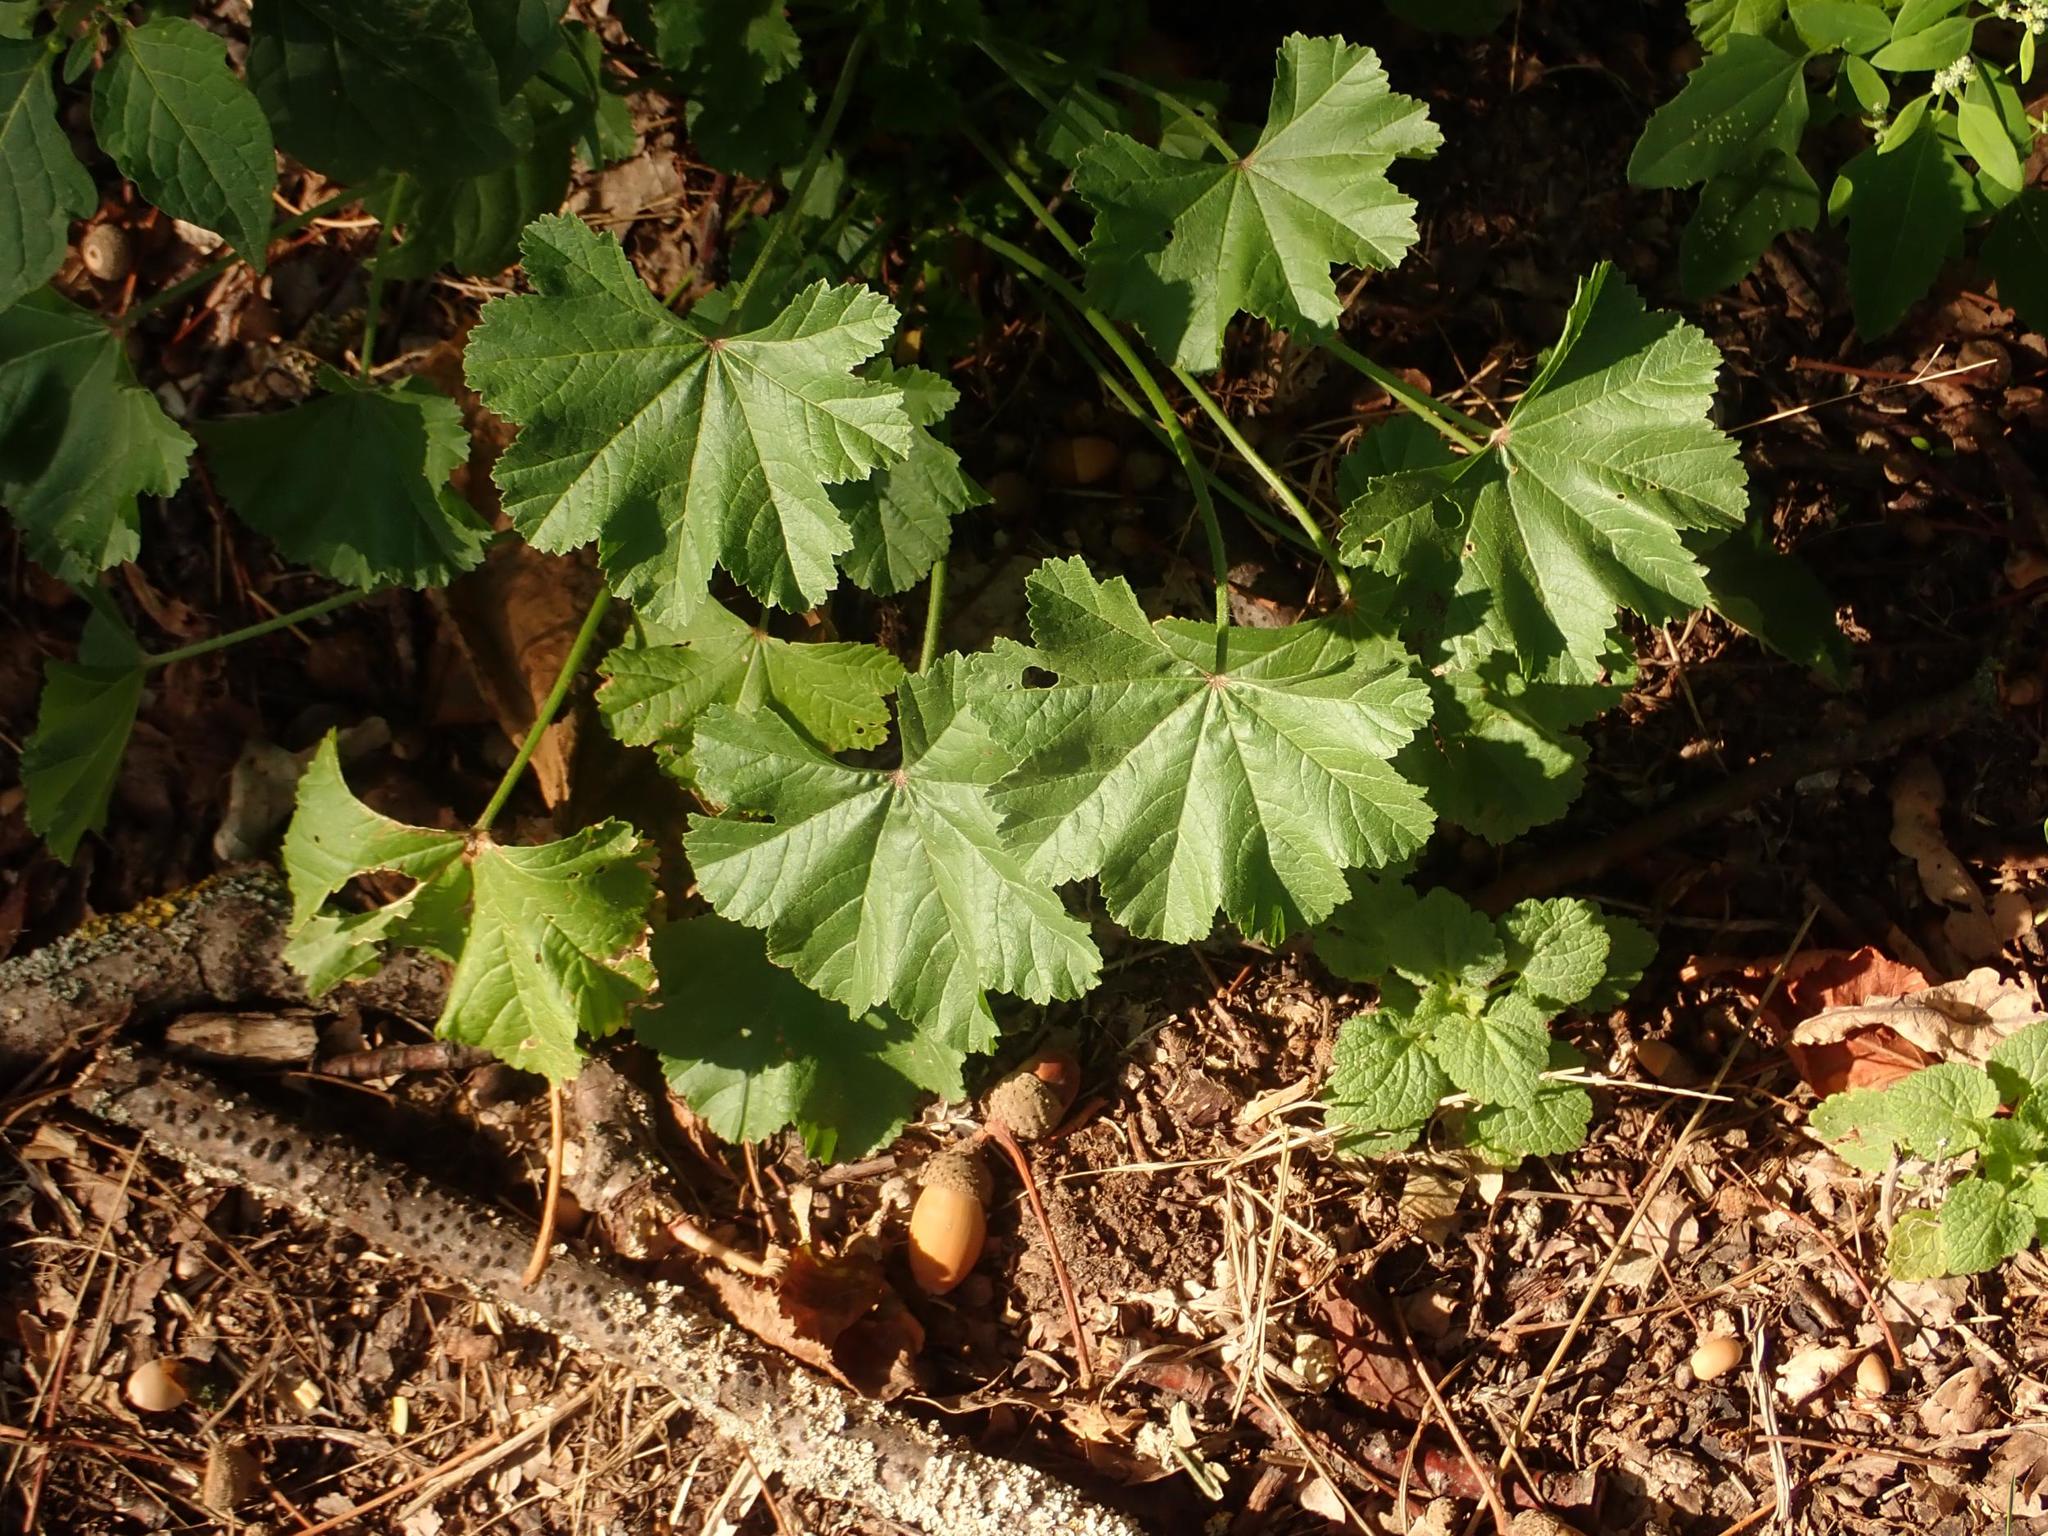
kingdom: Plantae
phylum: Tracheophyta
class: Magnoliopsida
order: Malvales
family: Malvaceae
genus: Malva
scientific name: Malva sylvestris
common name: Common mallow
